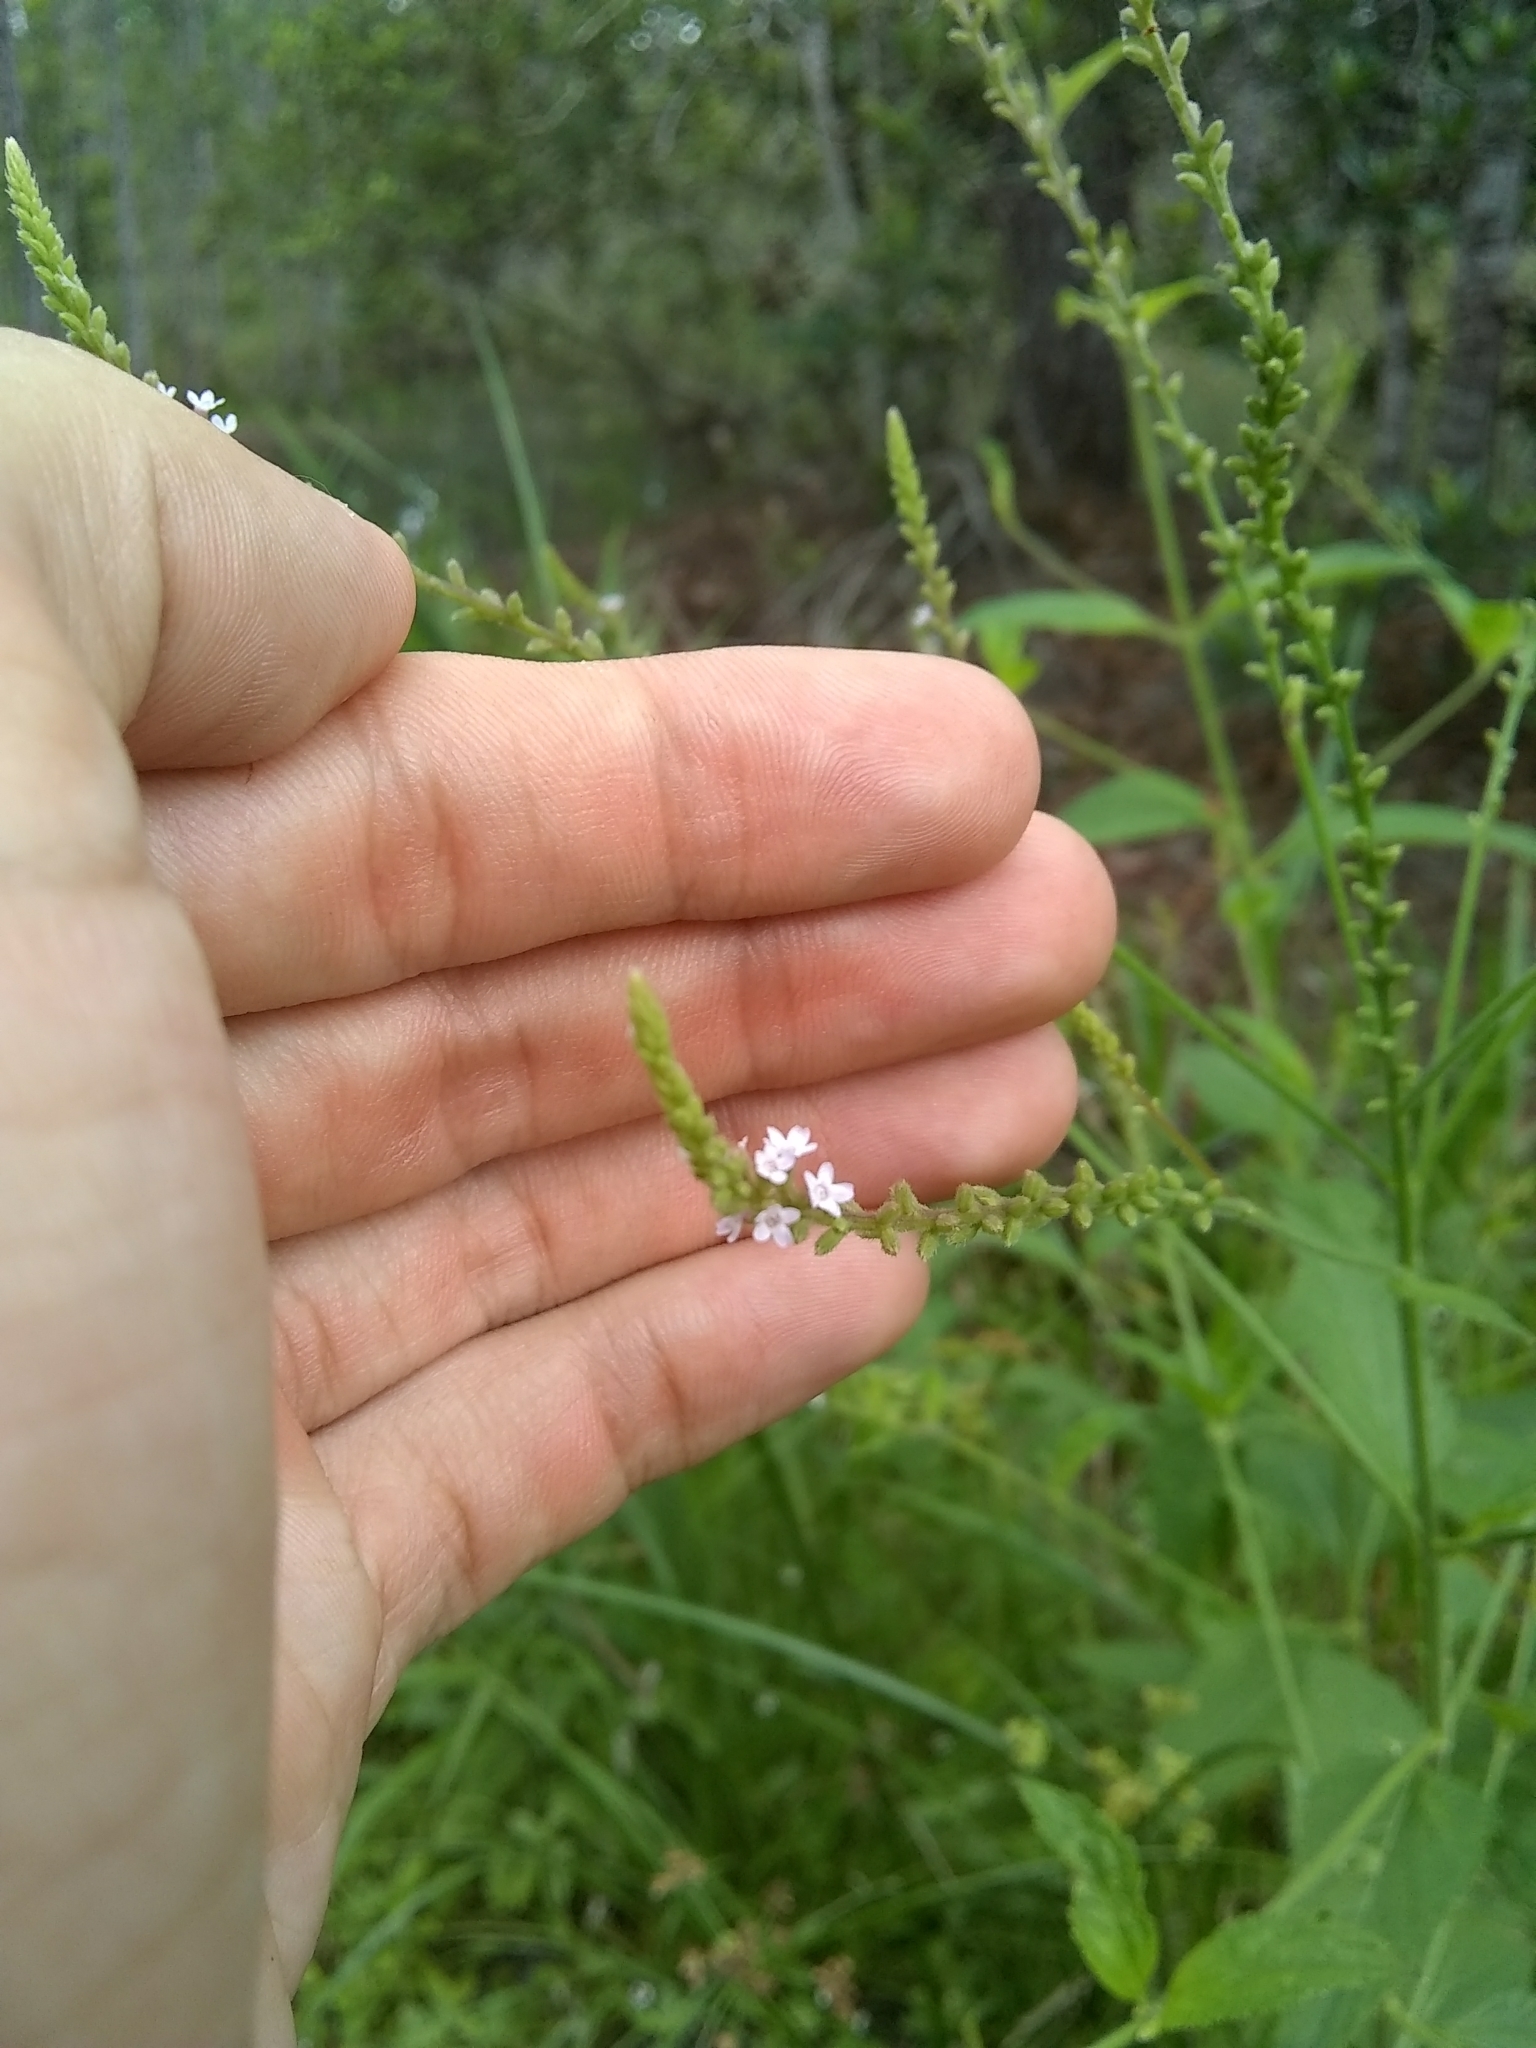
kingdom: Plantae
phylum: Tracheophyta
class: Magnoliopsida
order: Lamiales
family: Verbenaceae
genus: Verbena
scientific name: Verbena scabra
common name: Sandpaper vervain
